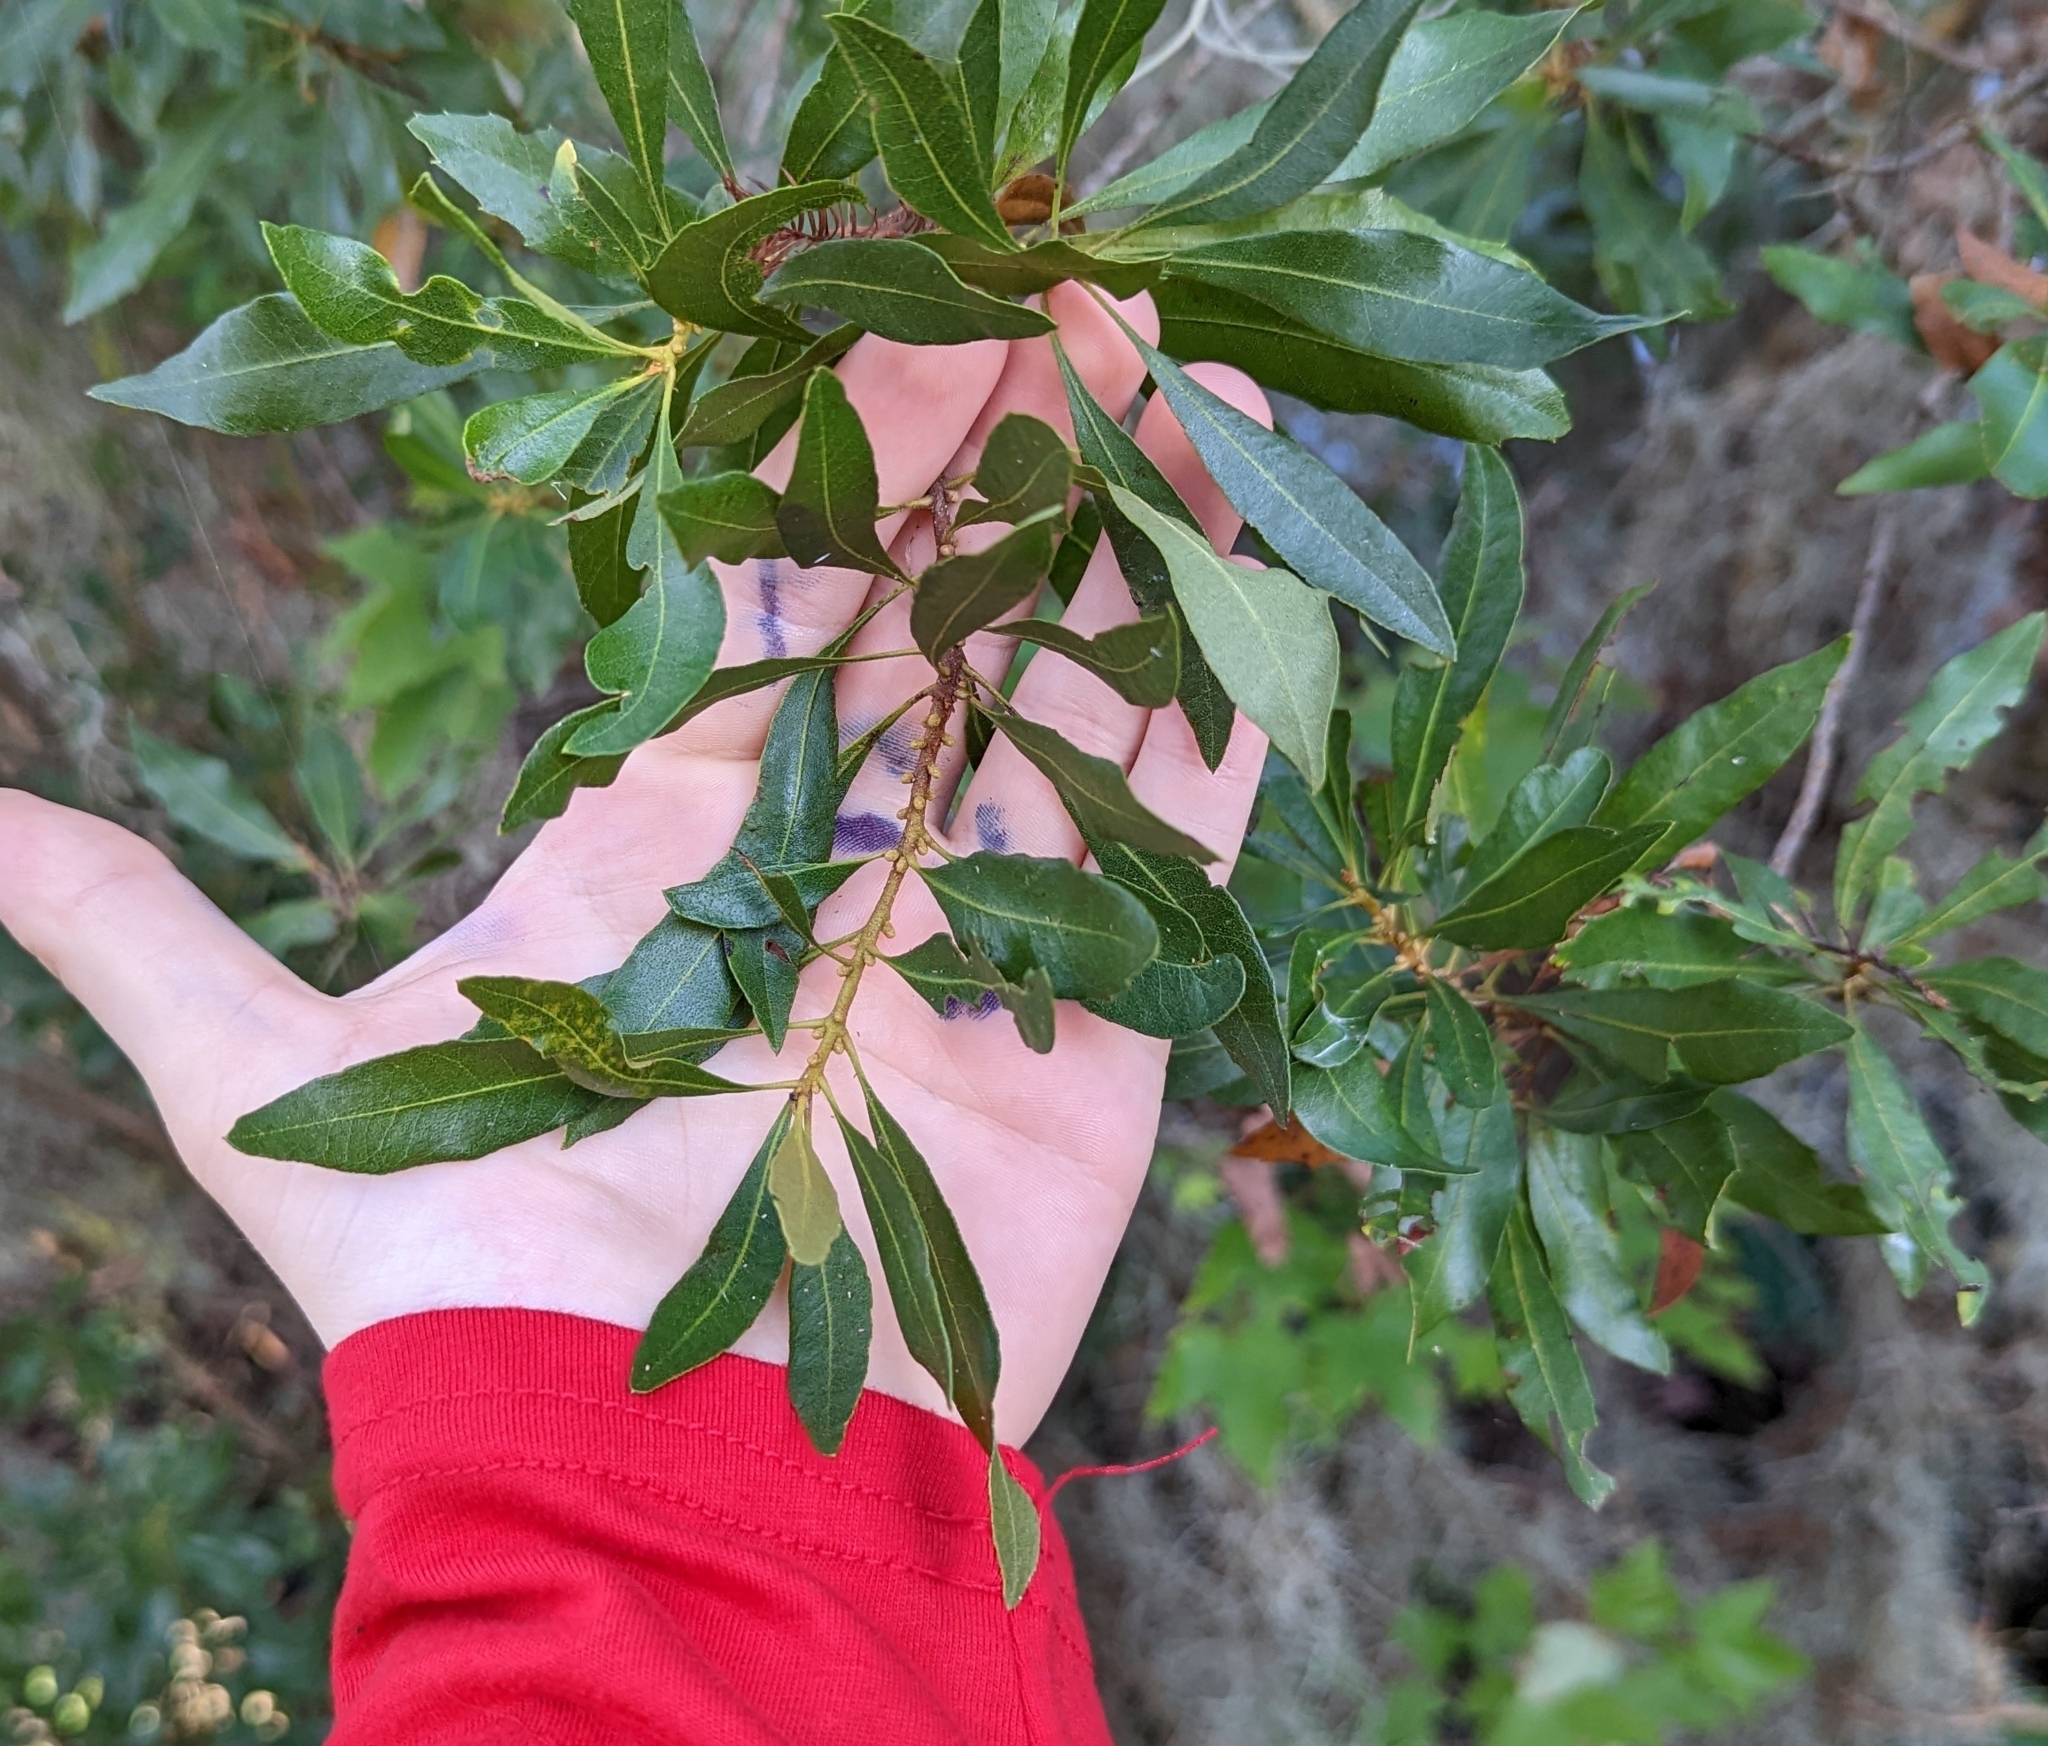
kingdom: Plantae
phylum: Tracheophyta
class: Magnoliopsida
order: Fagales
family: Myricaceae
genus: Morella
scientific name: Morella cerifera
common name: Wax myrtle
